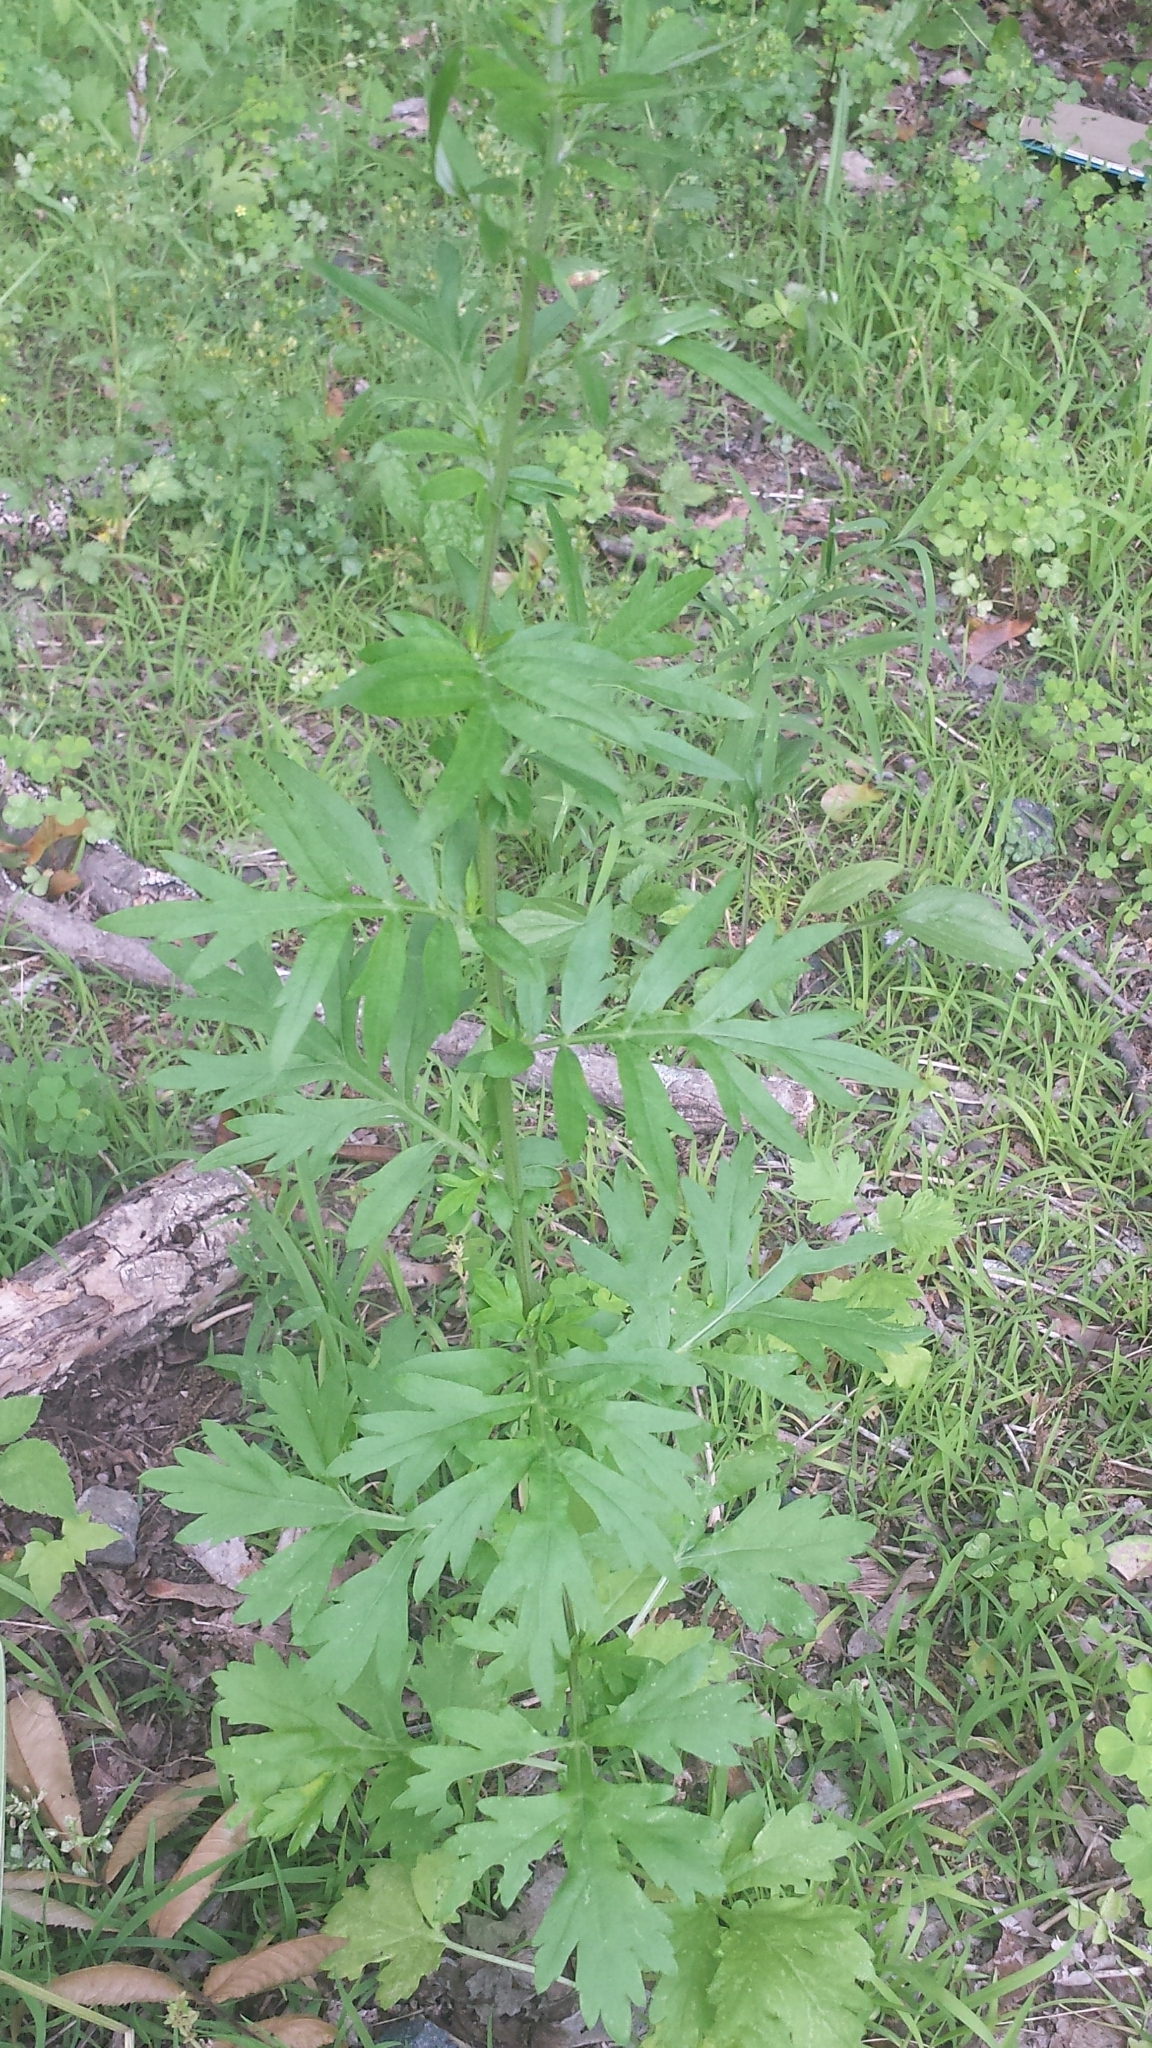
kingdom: Plantae
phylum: Tracheophyta
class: Magnoliopsida
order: Asterales
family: Asteraceae
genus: Artemisia
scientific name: Artemisia vulgaris
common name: Mugwort
